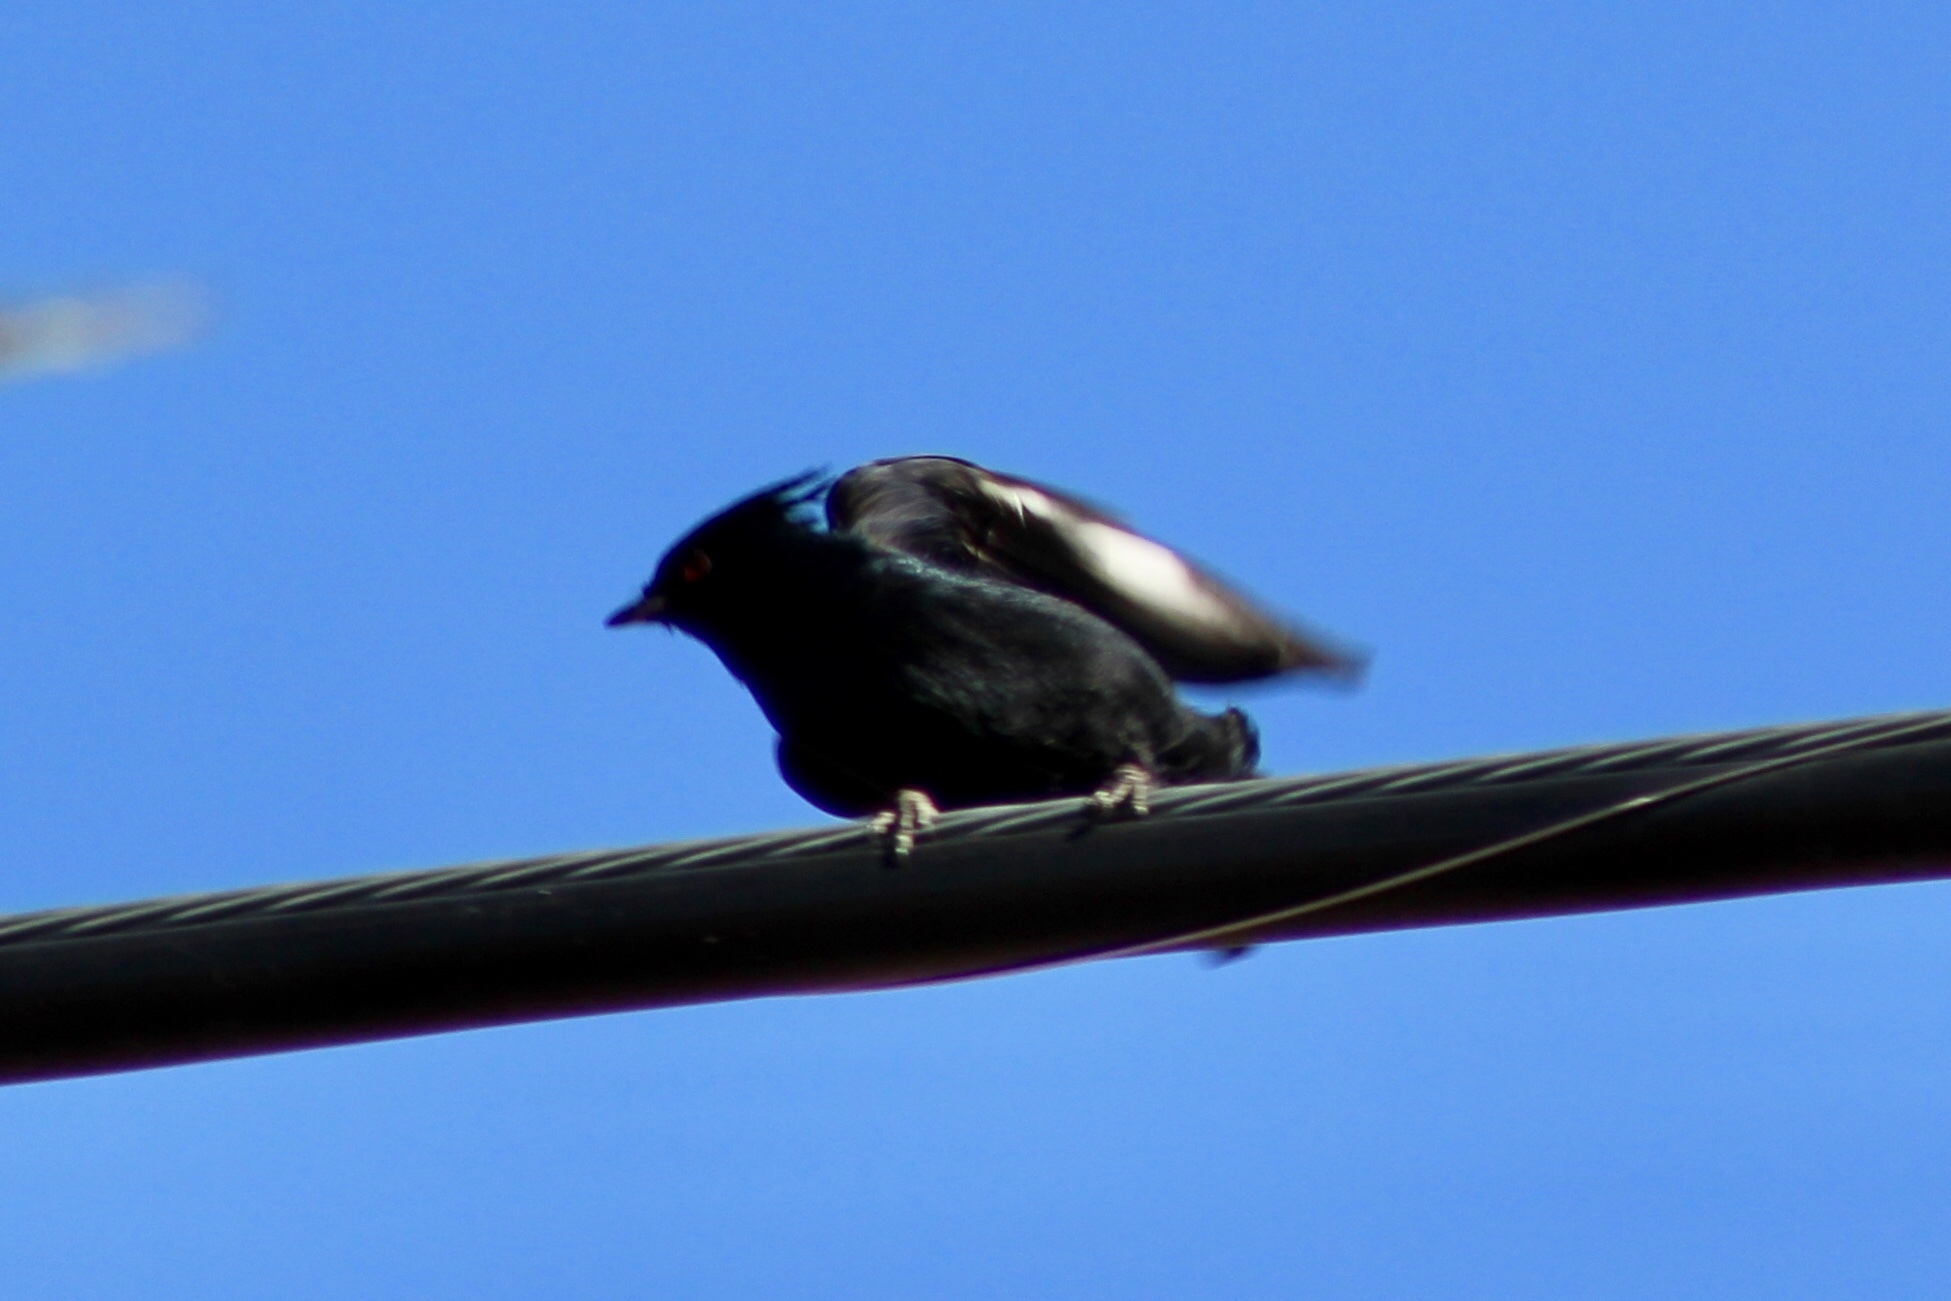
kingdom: Animalia
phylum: Chordata
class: Aves
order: Passeriformes
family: Ptilogonatidae
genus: Phainopepla
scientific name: Phainopepla nitens
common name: Phainopepla
